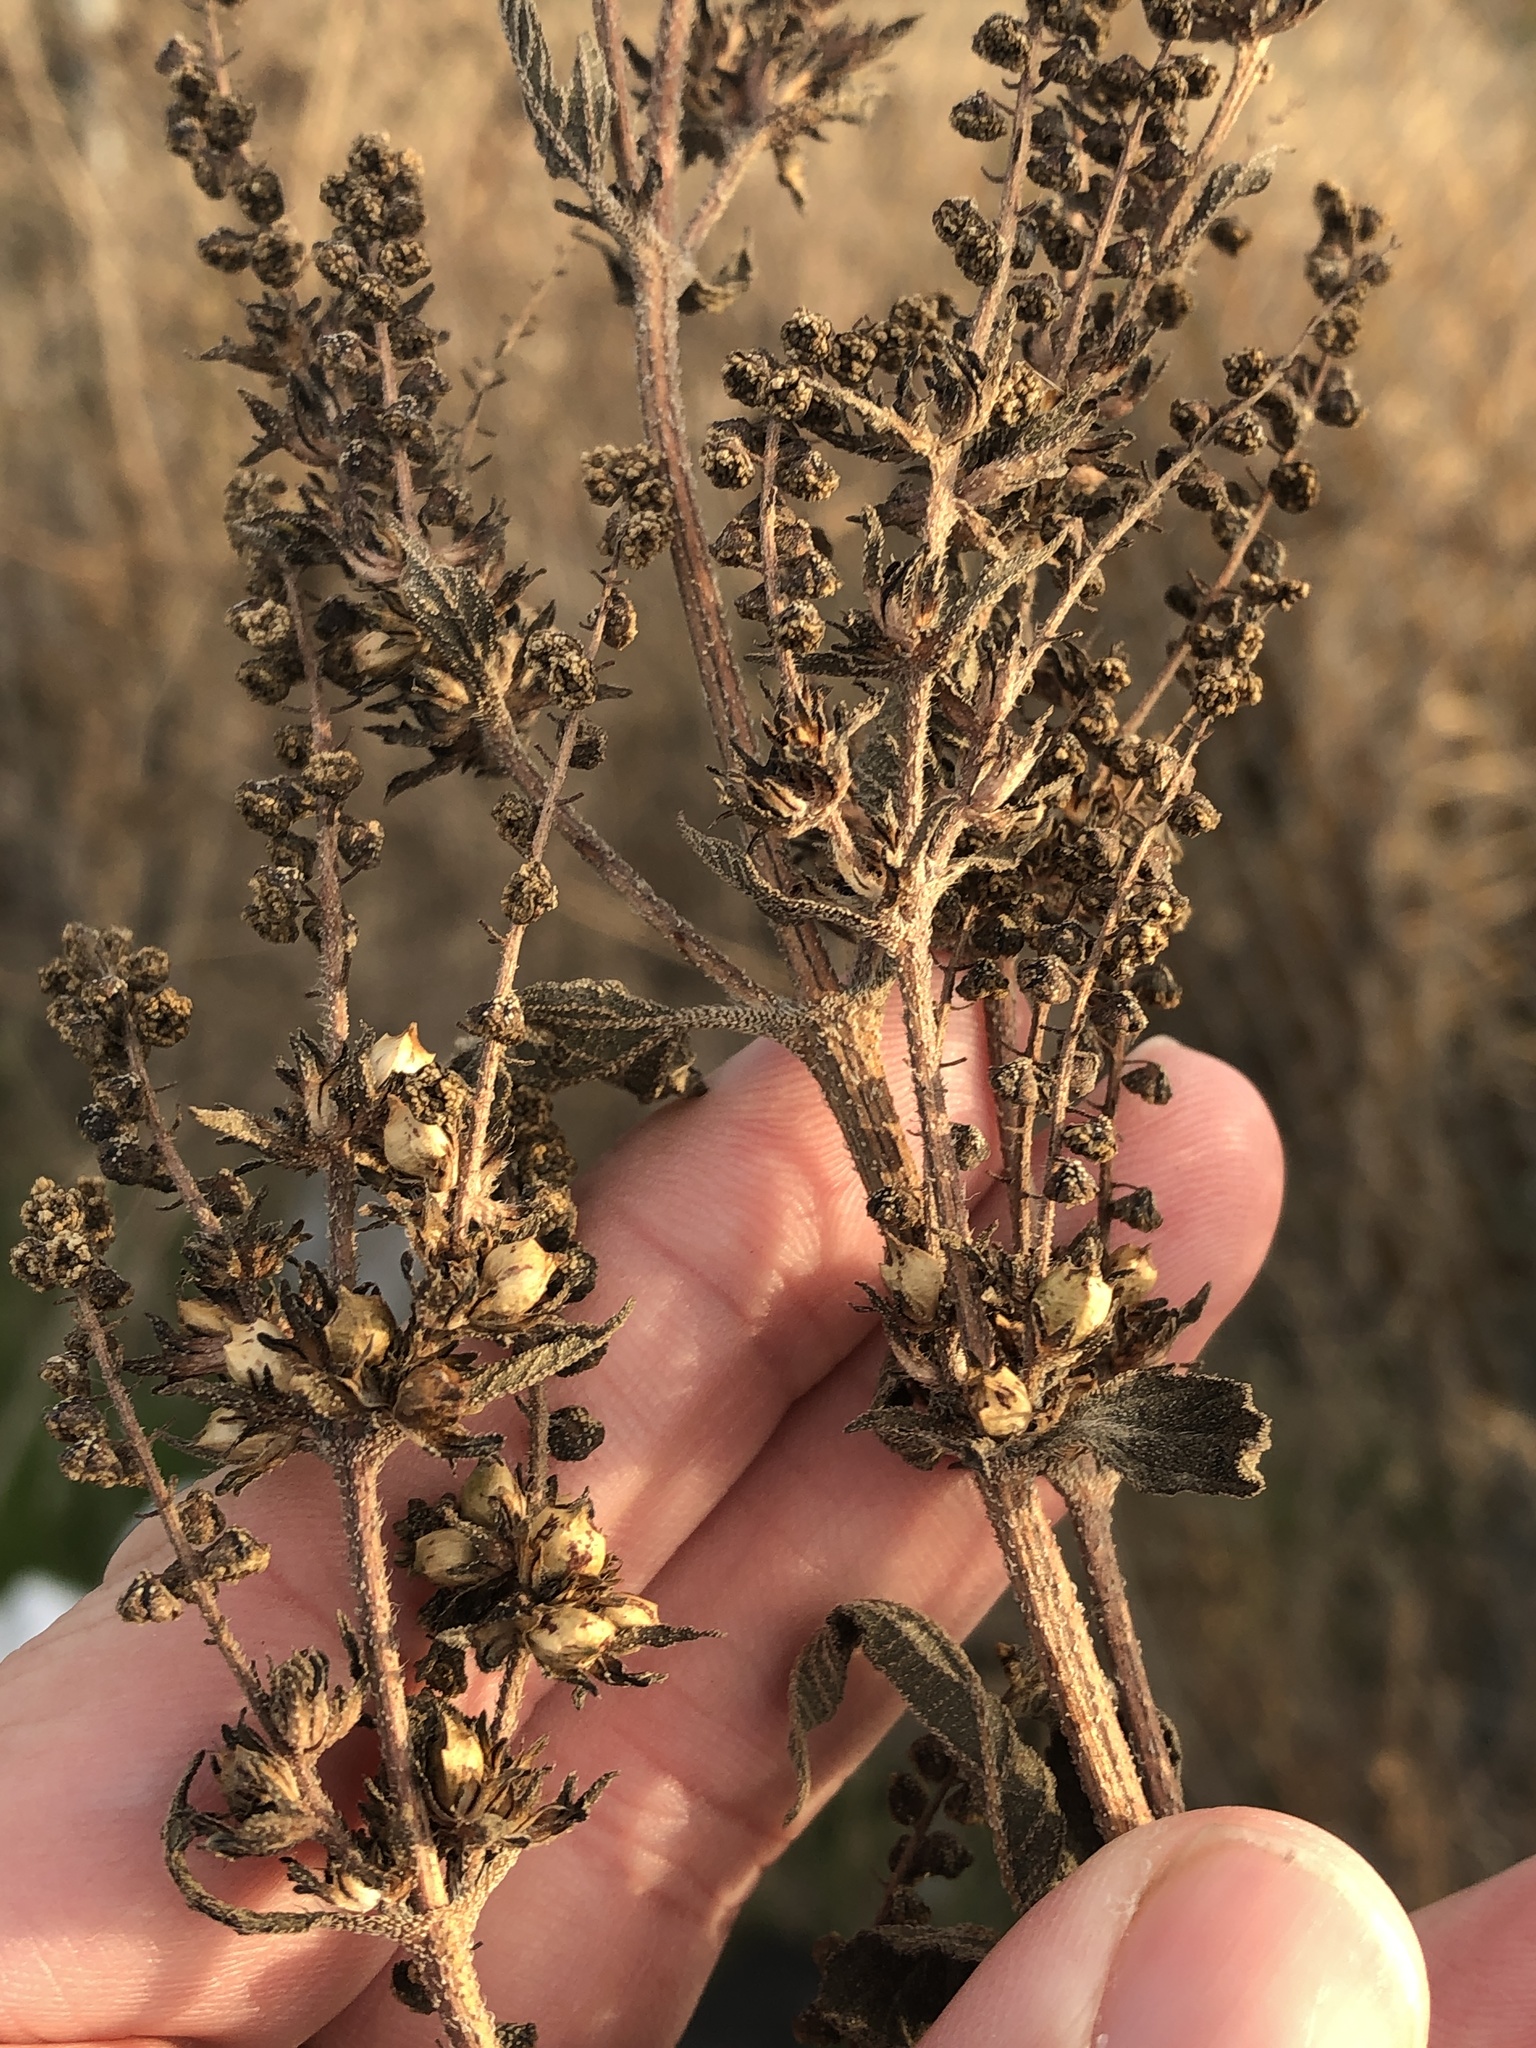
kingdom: Plantae
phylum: Tracheophyta
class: Magnoliopsida
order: Asterales
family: Asteraceae
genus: Ambrosia
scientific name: Ambrosia trifida
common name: Giant ragweed
